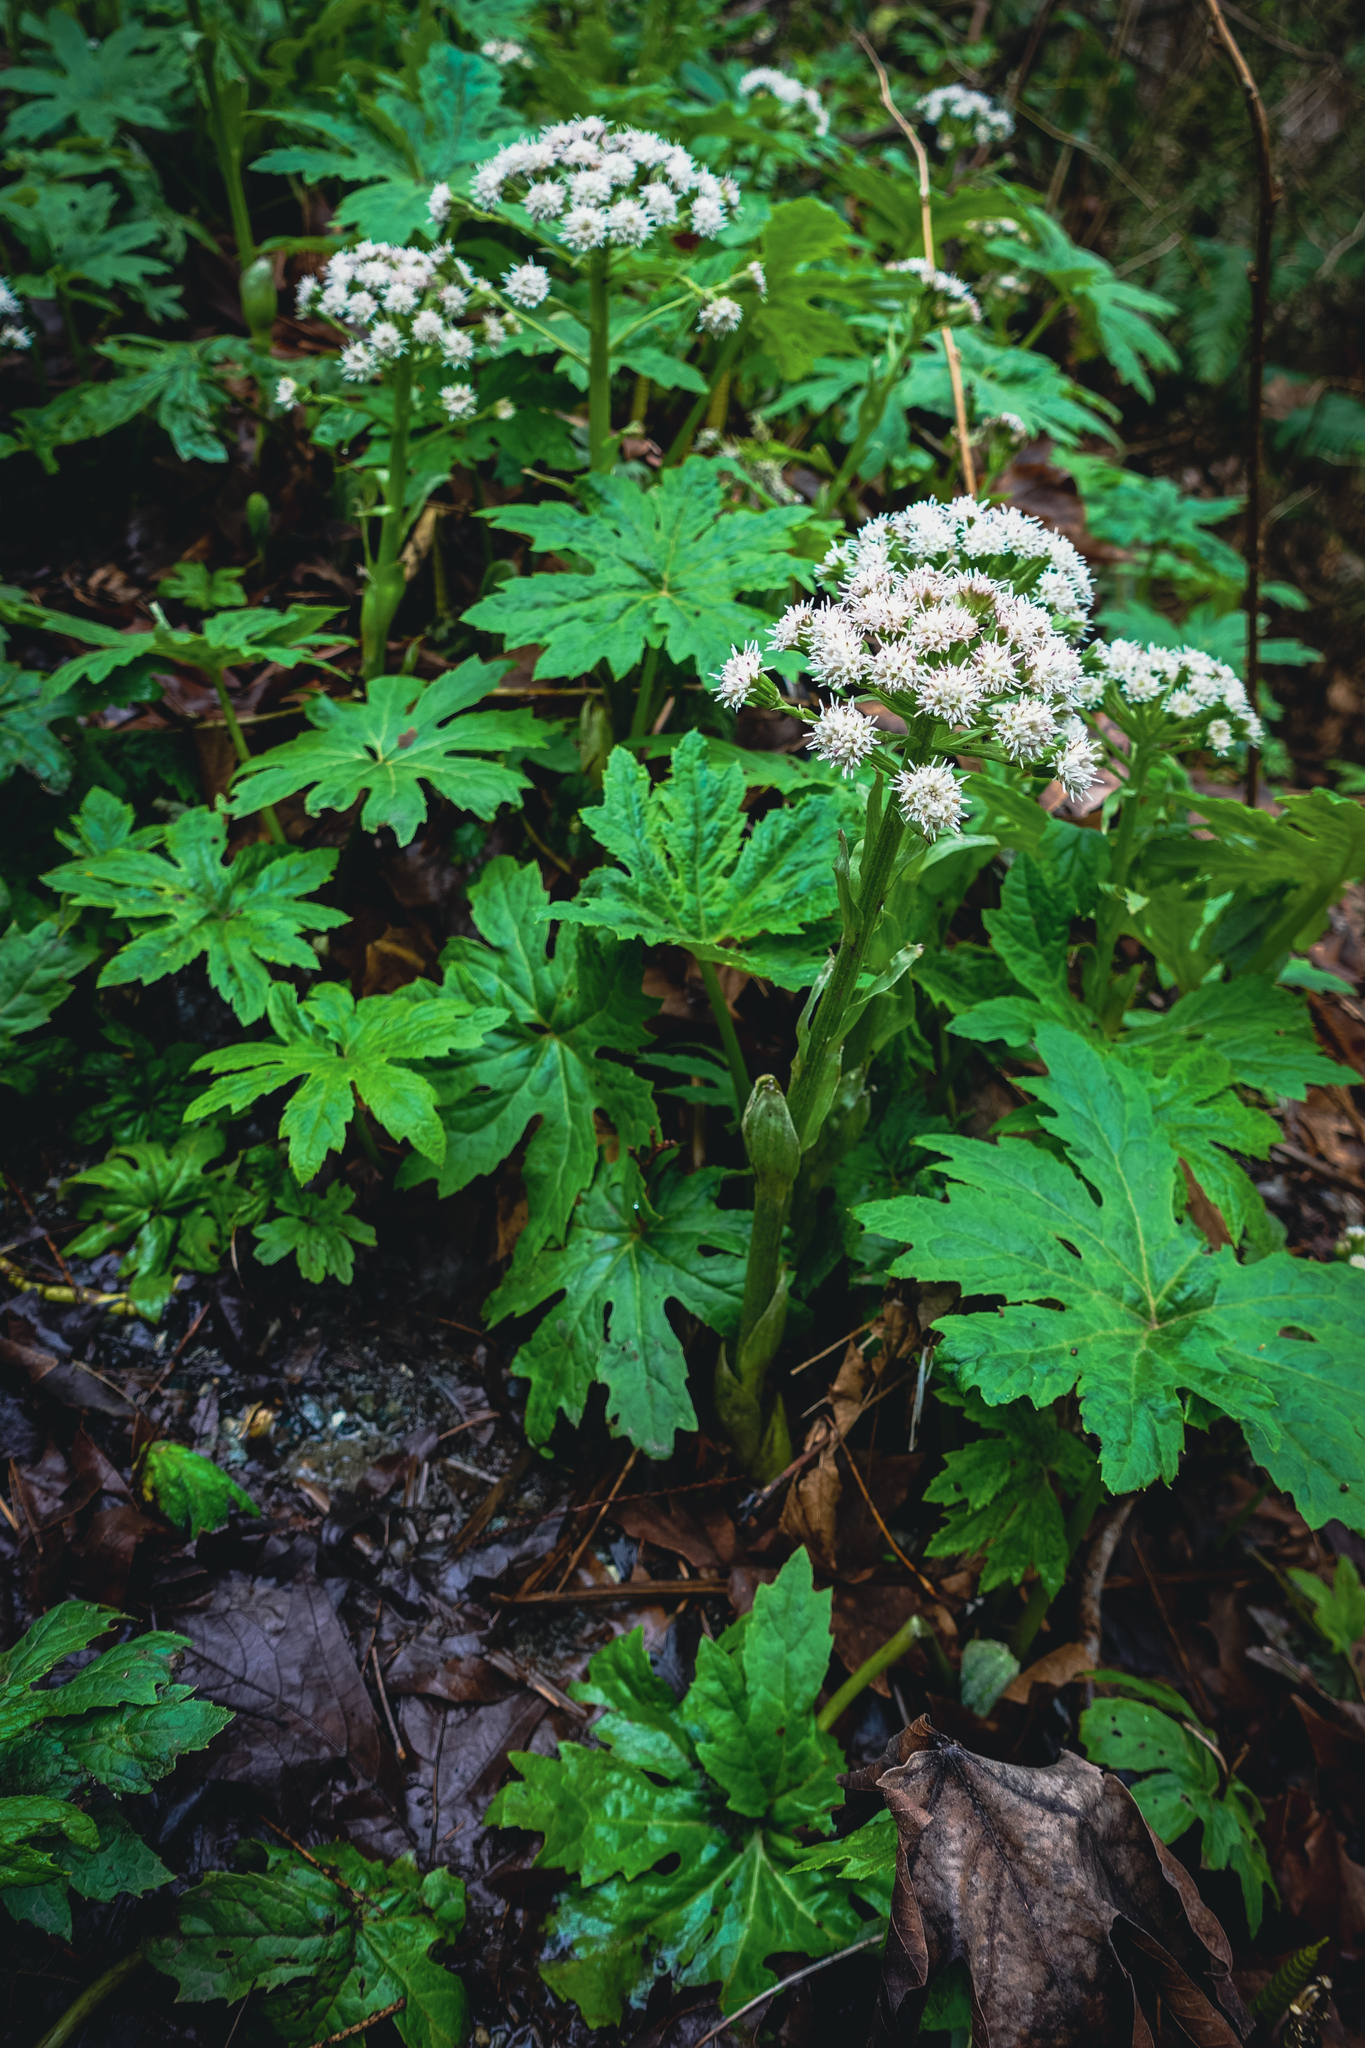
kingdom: Plantae
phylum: Tracheophyta
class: Magnoliopsida
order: Asterales
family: Asteraceae
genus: Petasites
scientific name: Petasites frigidus
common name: Arctic butterbur
